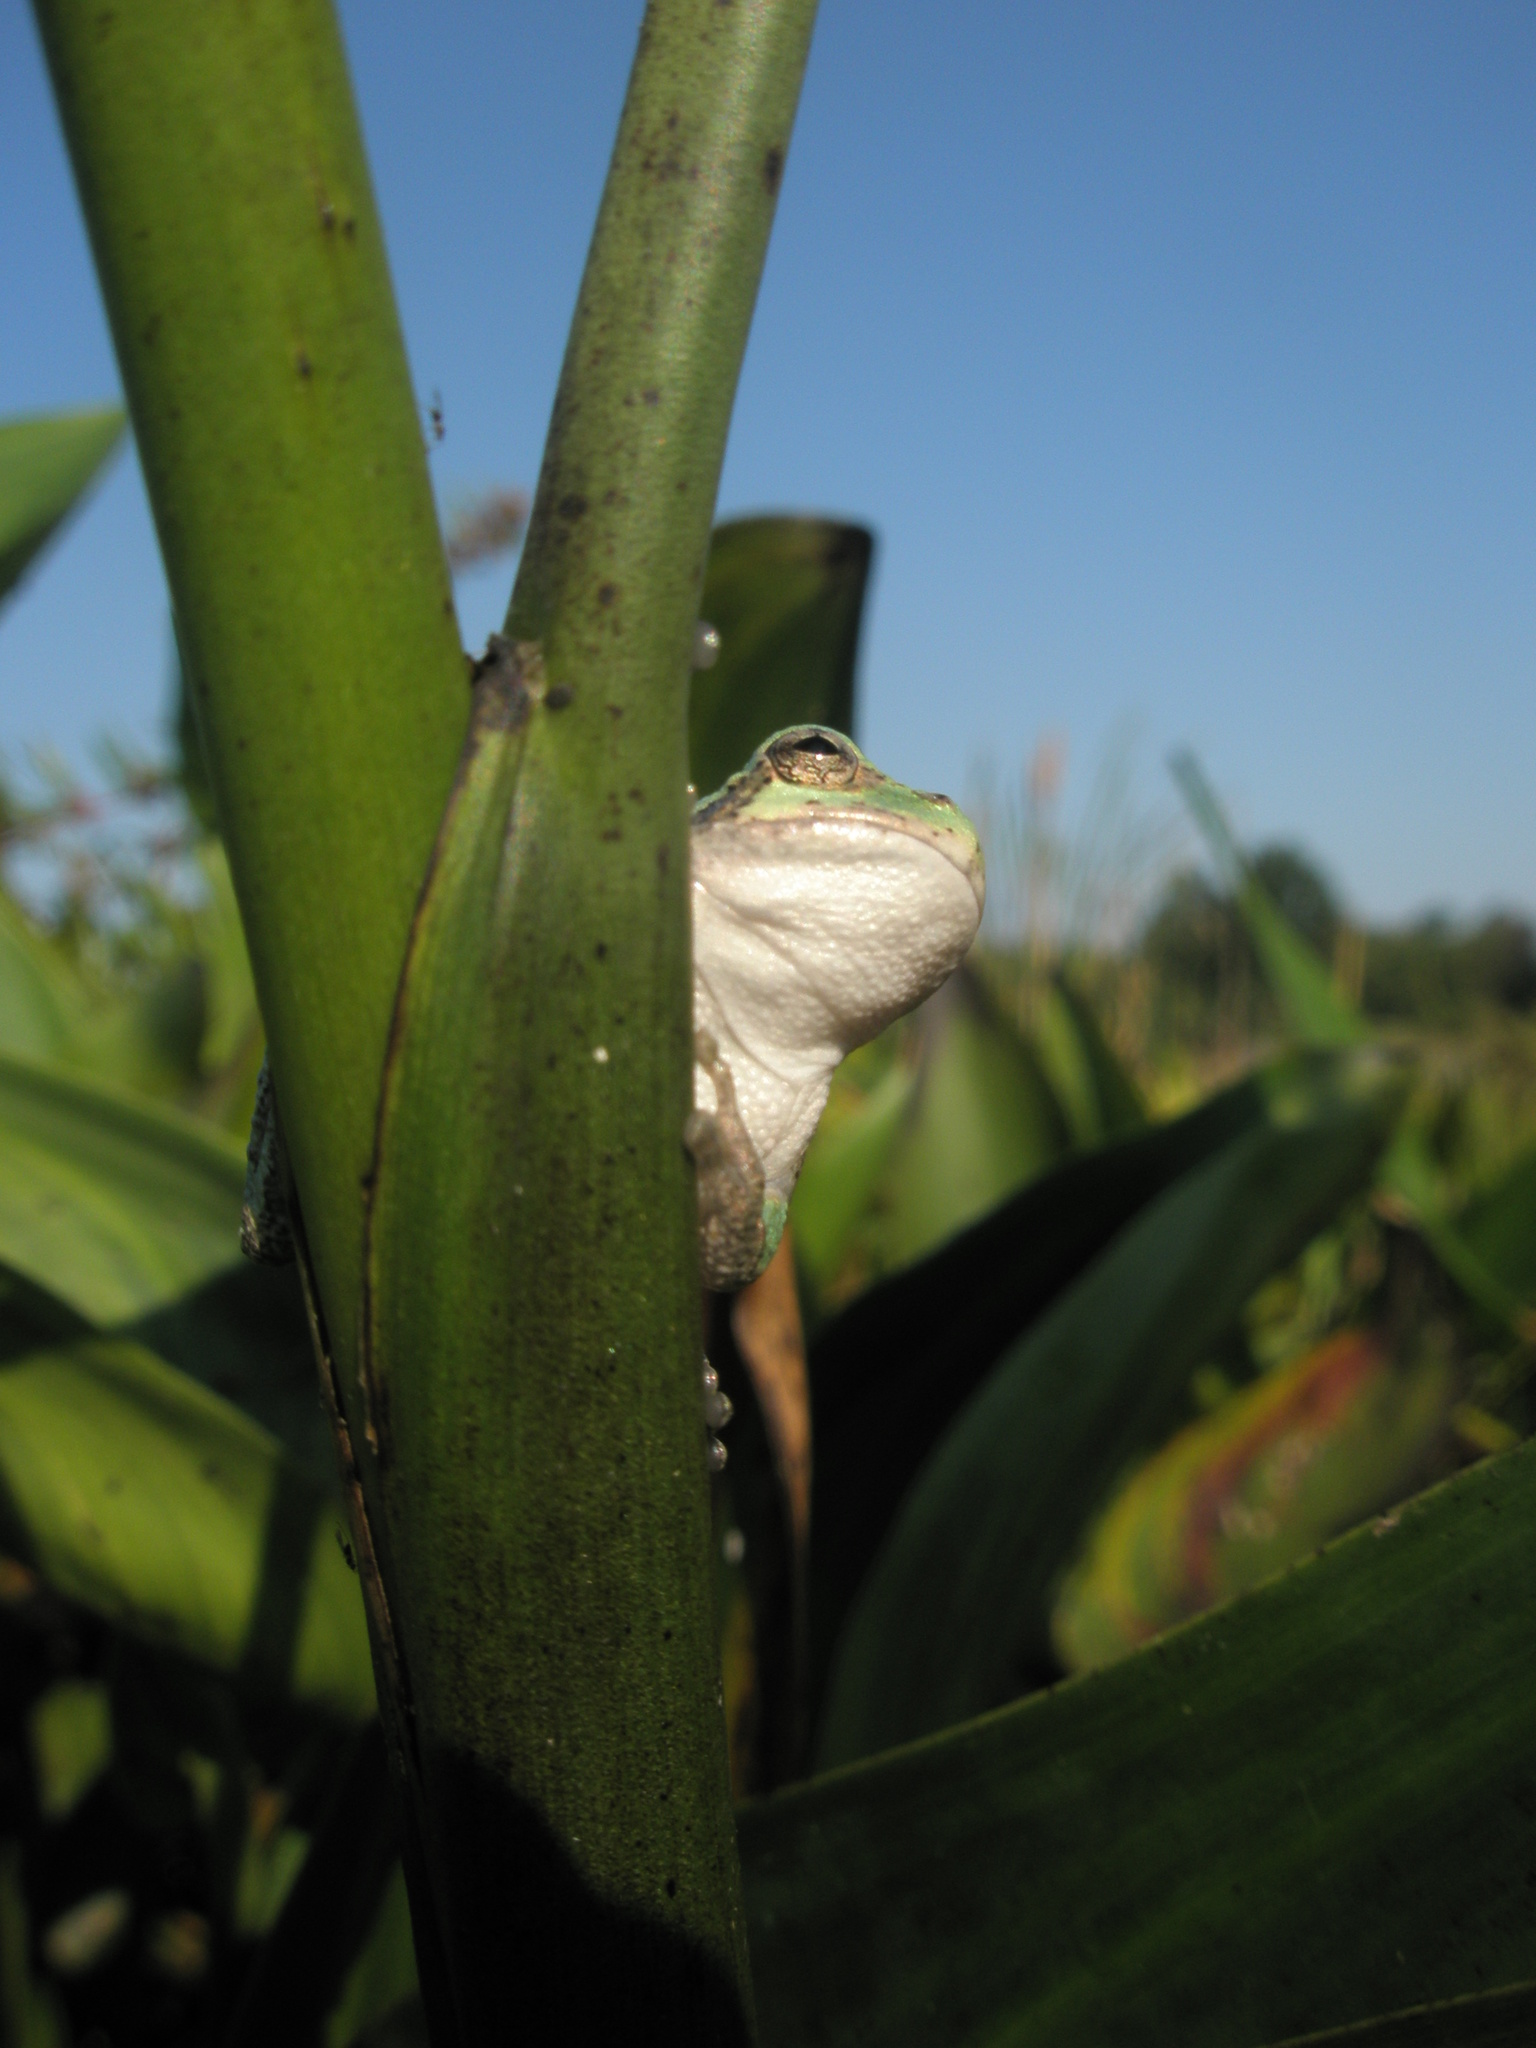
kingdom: Animalia
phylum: Chordata
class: Amphibia
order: Anura
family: Hylidae
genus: Dryophytes
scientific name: Dryophytes versicolor
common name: Gray treefrog
